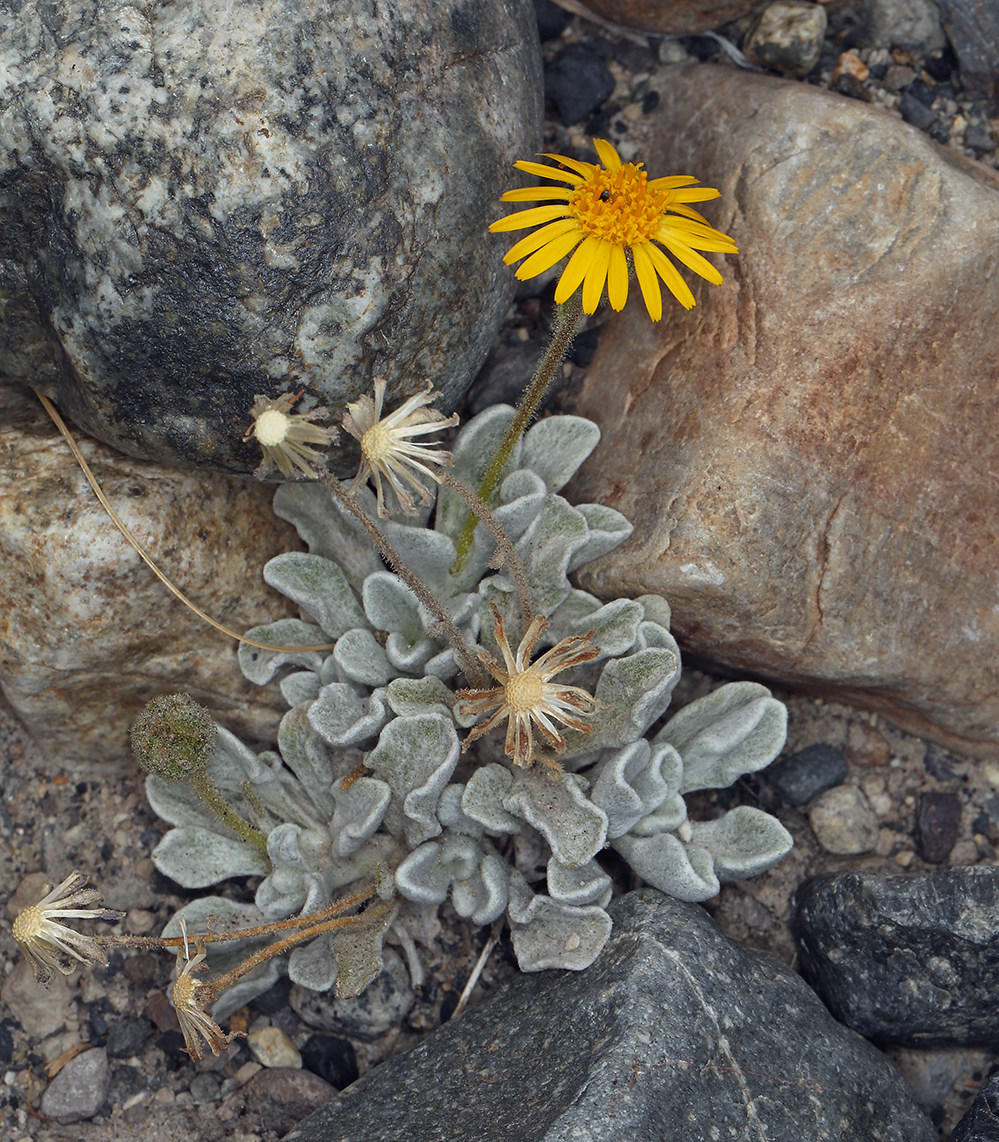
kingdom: Plantae
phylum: Tracheophyta
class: Magnoliopsida
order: Asterales
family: Asteraceae
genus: Hulsea
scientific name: Hulsea vestita
